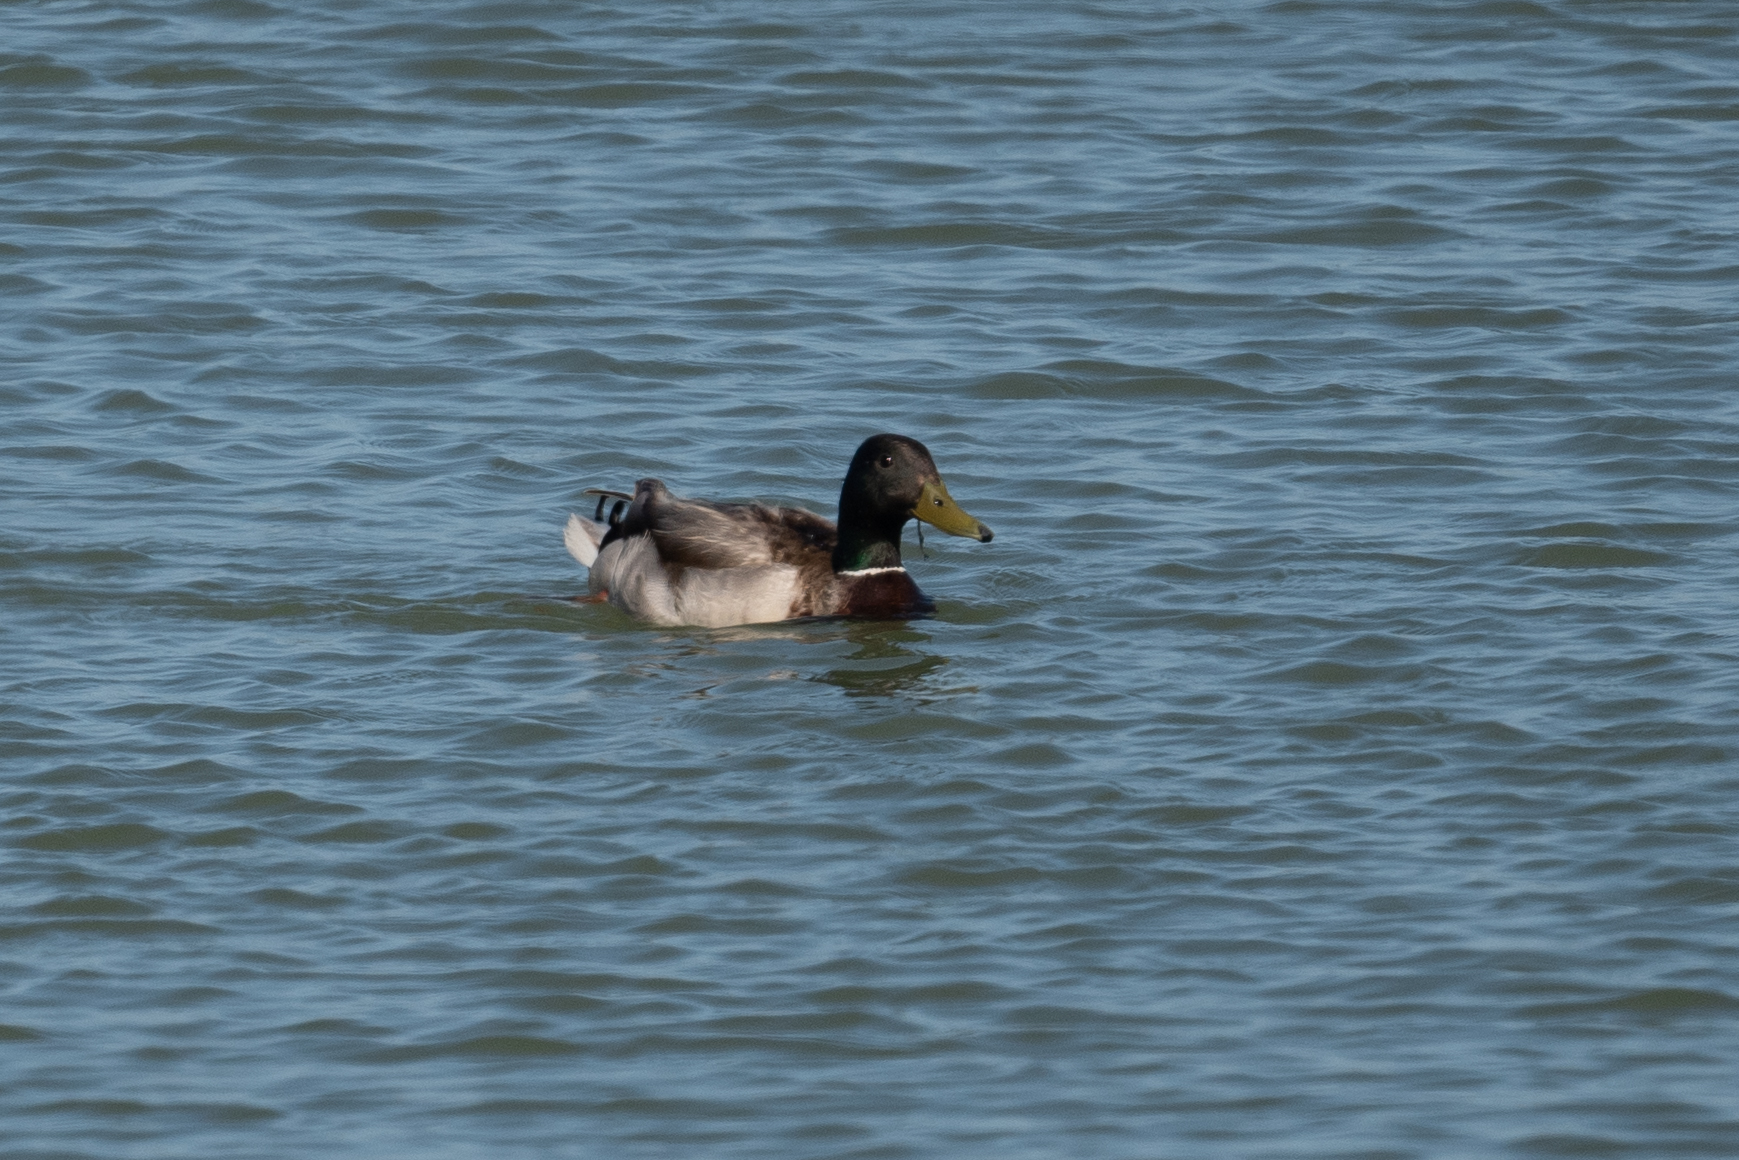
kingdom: Animalia
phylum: Chordata
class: Aves
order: Anseriformes
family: Anatidae
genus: Anas
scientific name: Anas platyrhynchos
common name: Mallard
